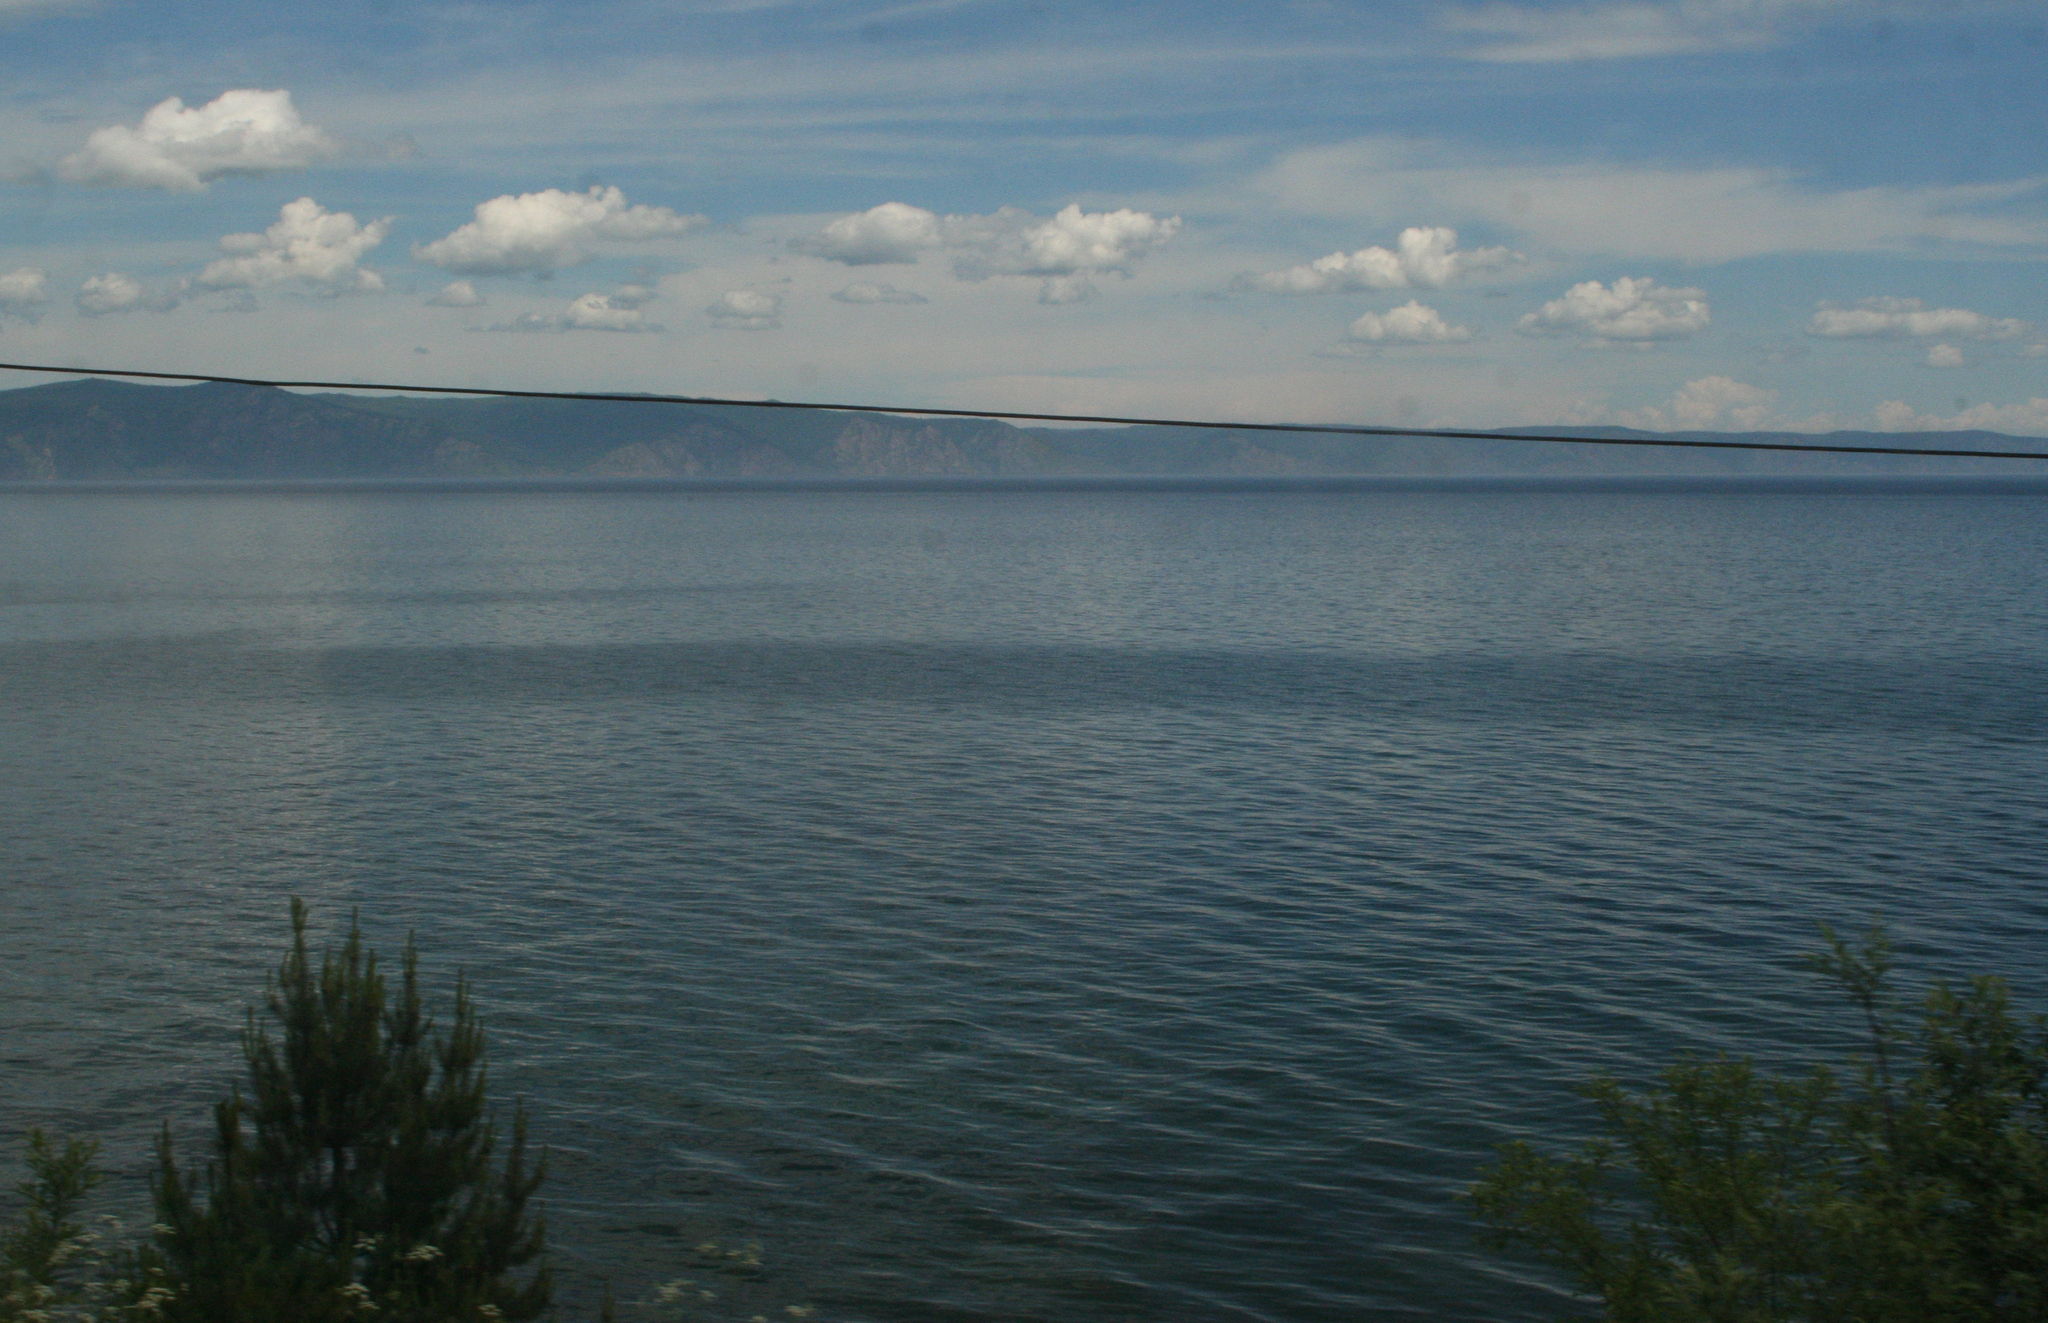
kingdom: Plantae
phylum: Tracheophyta
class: Pinopsida
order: Pinales
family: Pinaceae
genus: Pinus
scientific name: Pinus sylvestris
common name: Scots pine
